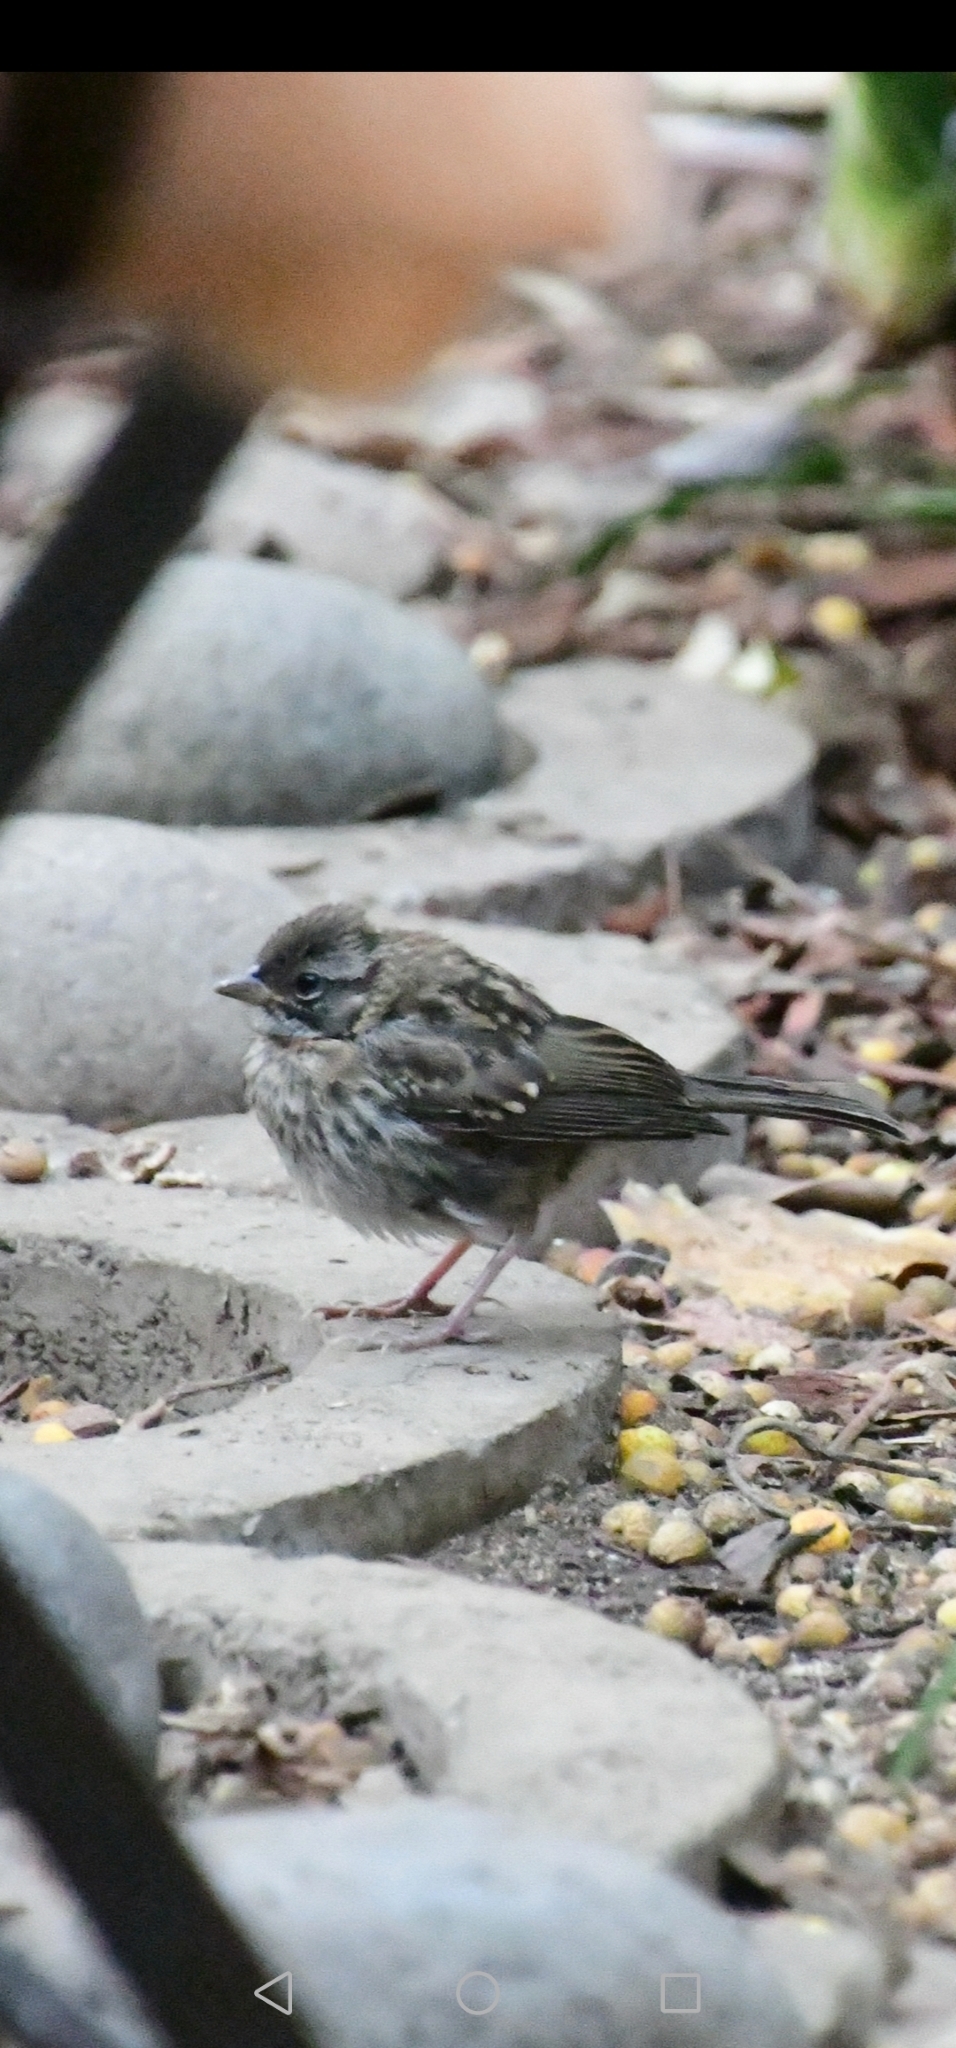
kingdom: Animalia
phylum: Chordata
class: Aves
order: Passeriformes
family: Passerellidae
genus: Zonotrichia
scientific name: Zonotrichia capensis
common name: Rufous-collared sparrow
